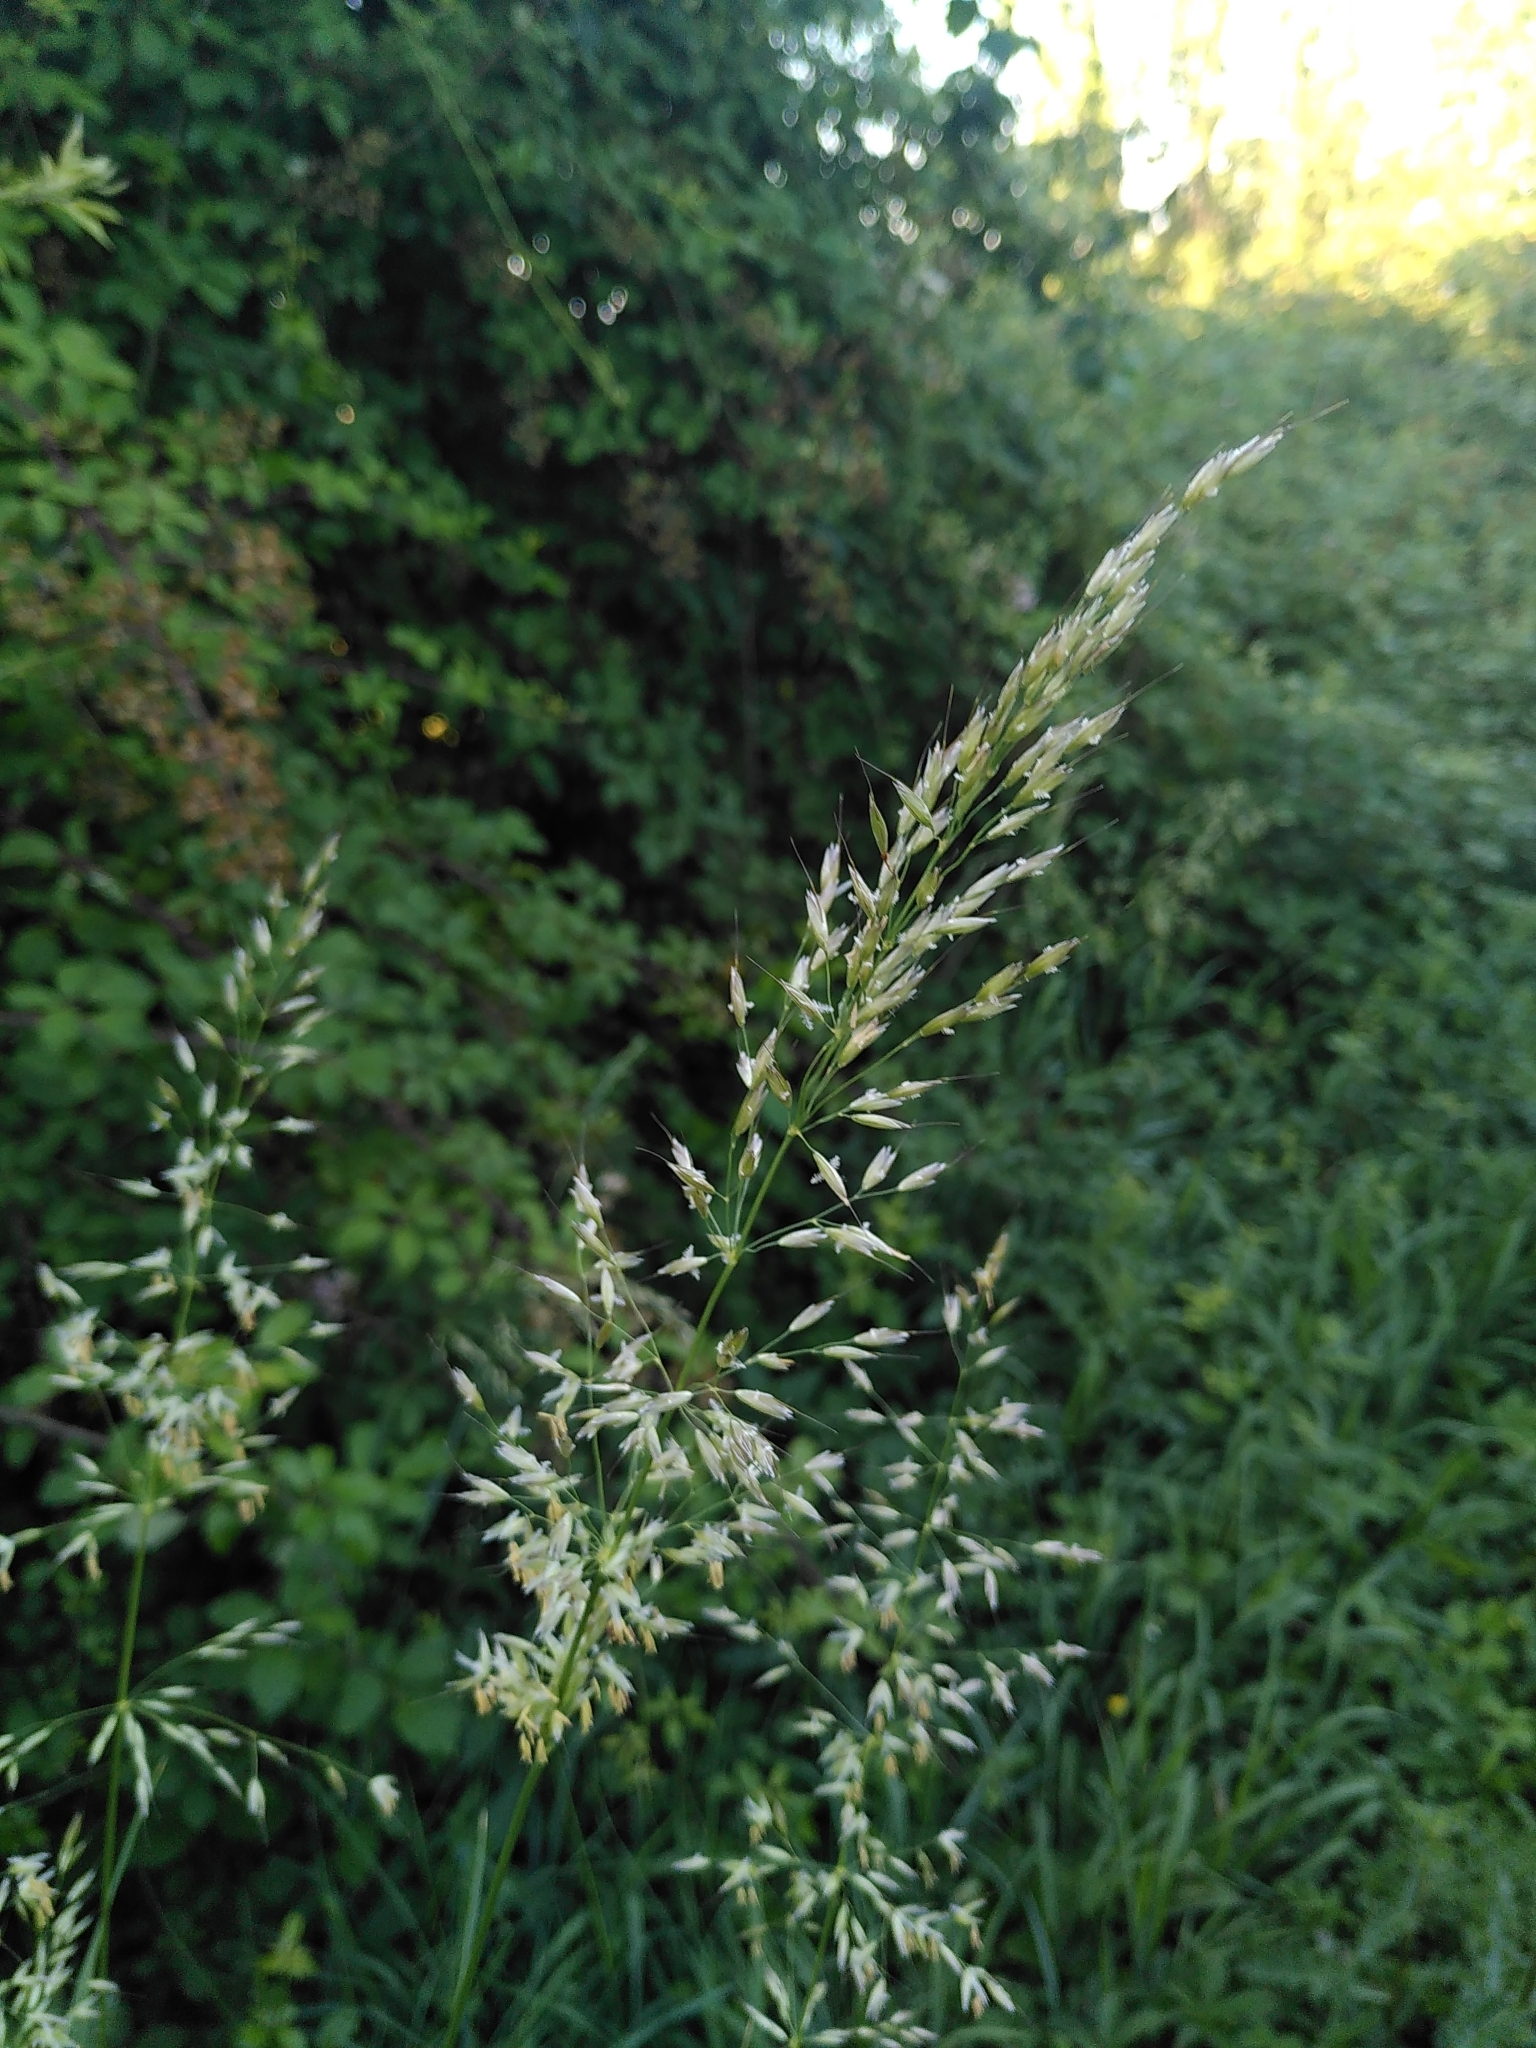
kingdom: Plantae
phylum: Tracheophyta
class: Liliopsida
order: Poales
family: Poaceae
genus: Arrhenatherum
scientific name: Arrhenatherum elatius
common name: Tall oatgrass
